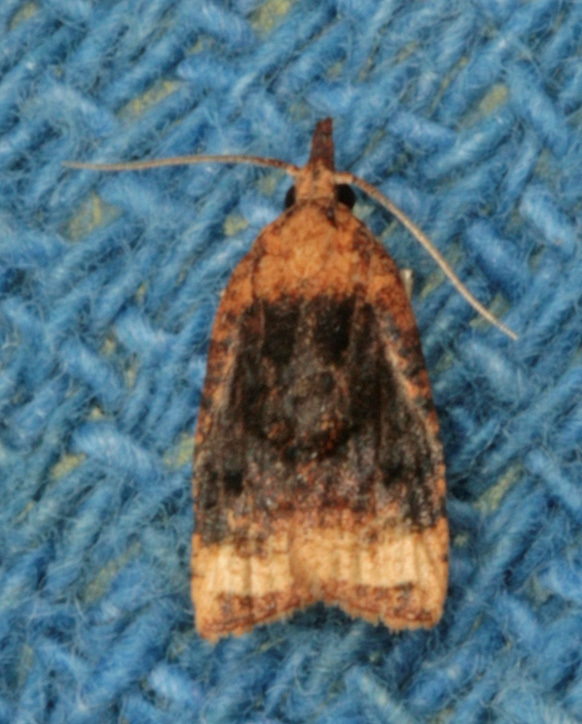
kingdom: Animalia
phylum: Arthropoda
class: Insecta
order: Lepidoptera
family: Tortricidae
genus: Platynota
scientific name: Platynota flavedana
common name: Black-shaded platynota moth
